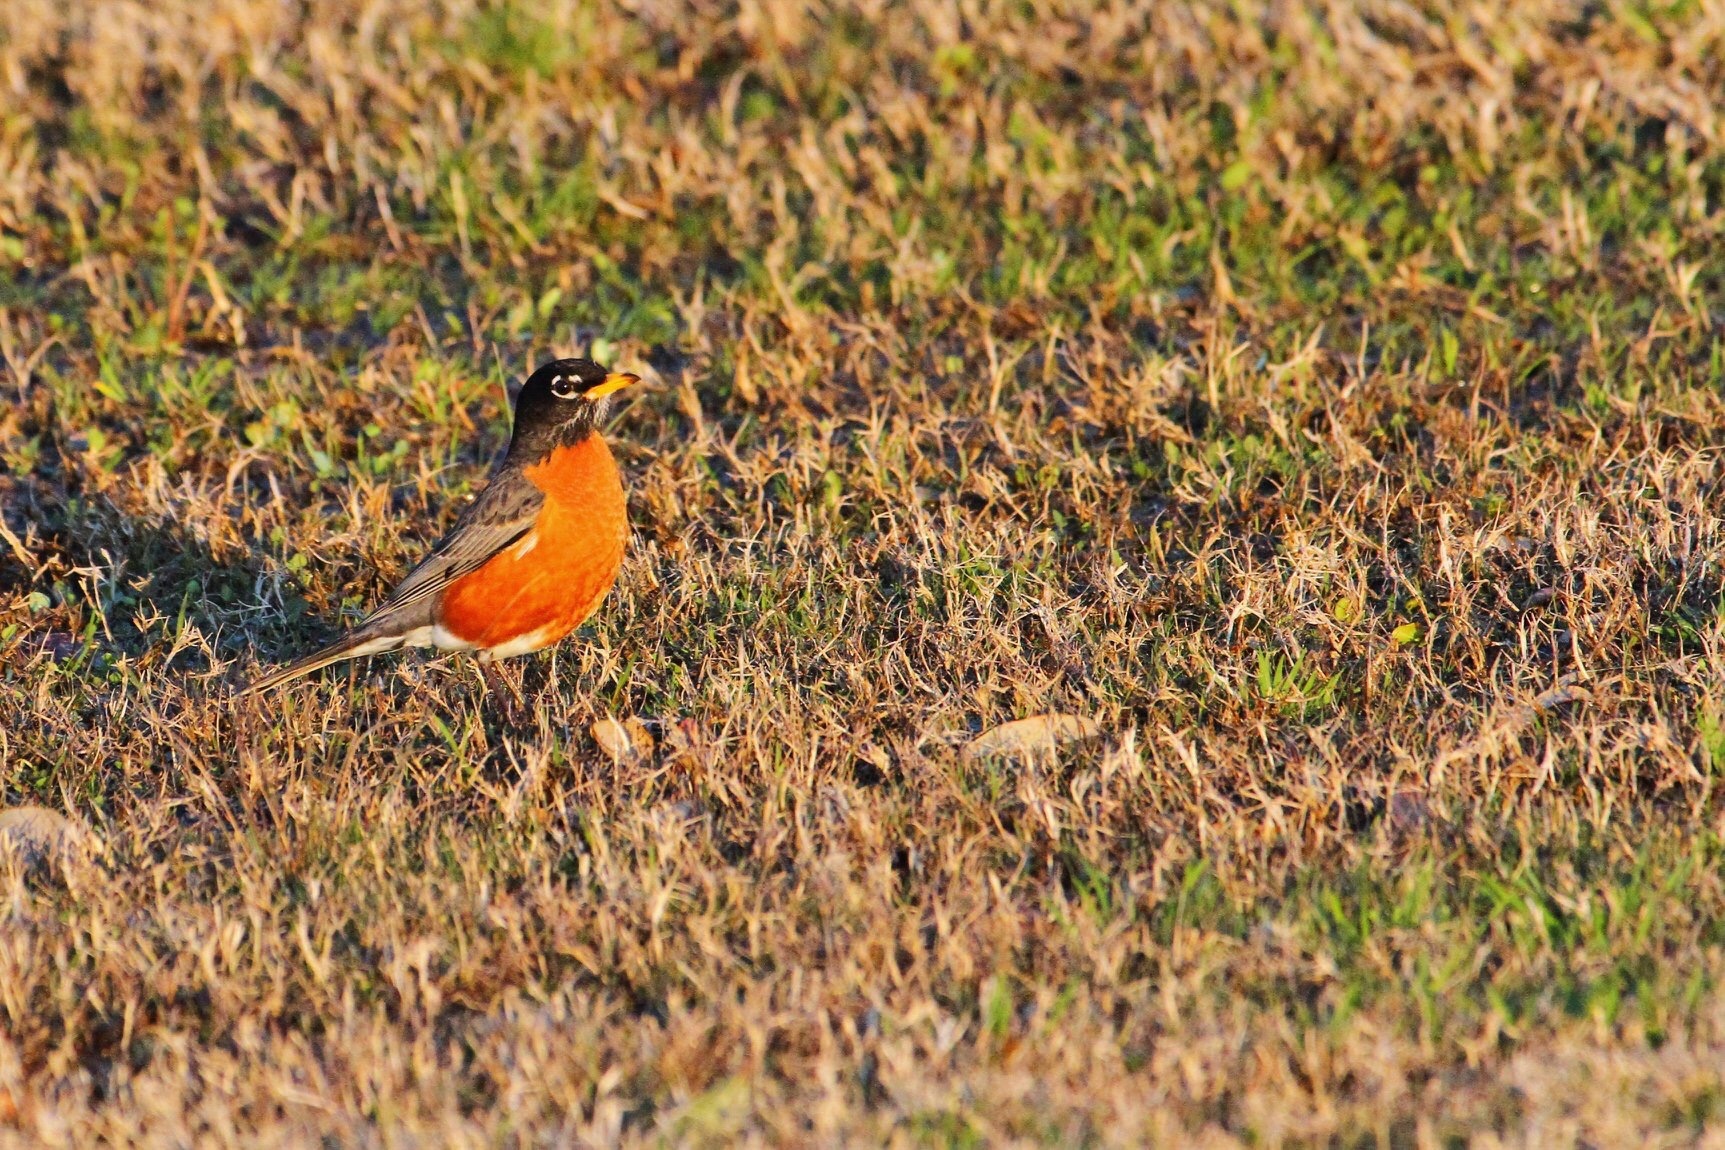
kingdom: Animalia
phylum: Chordata
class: Aves
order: Passeriformes
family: Turdidae
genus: Turdus
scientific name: Turdus migratorius
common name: American robin
